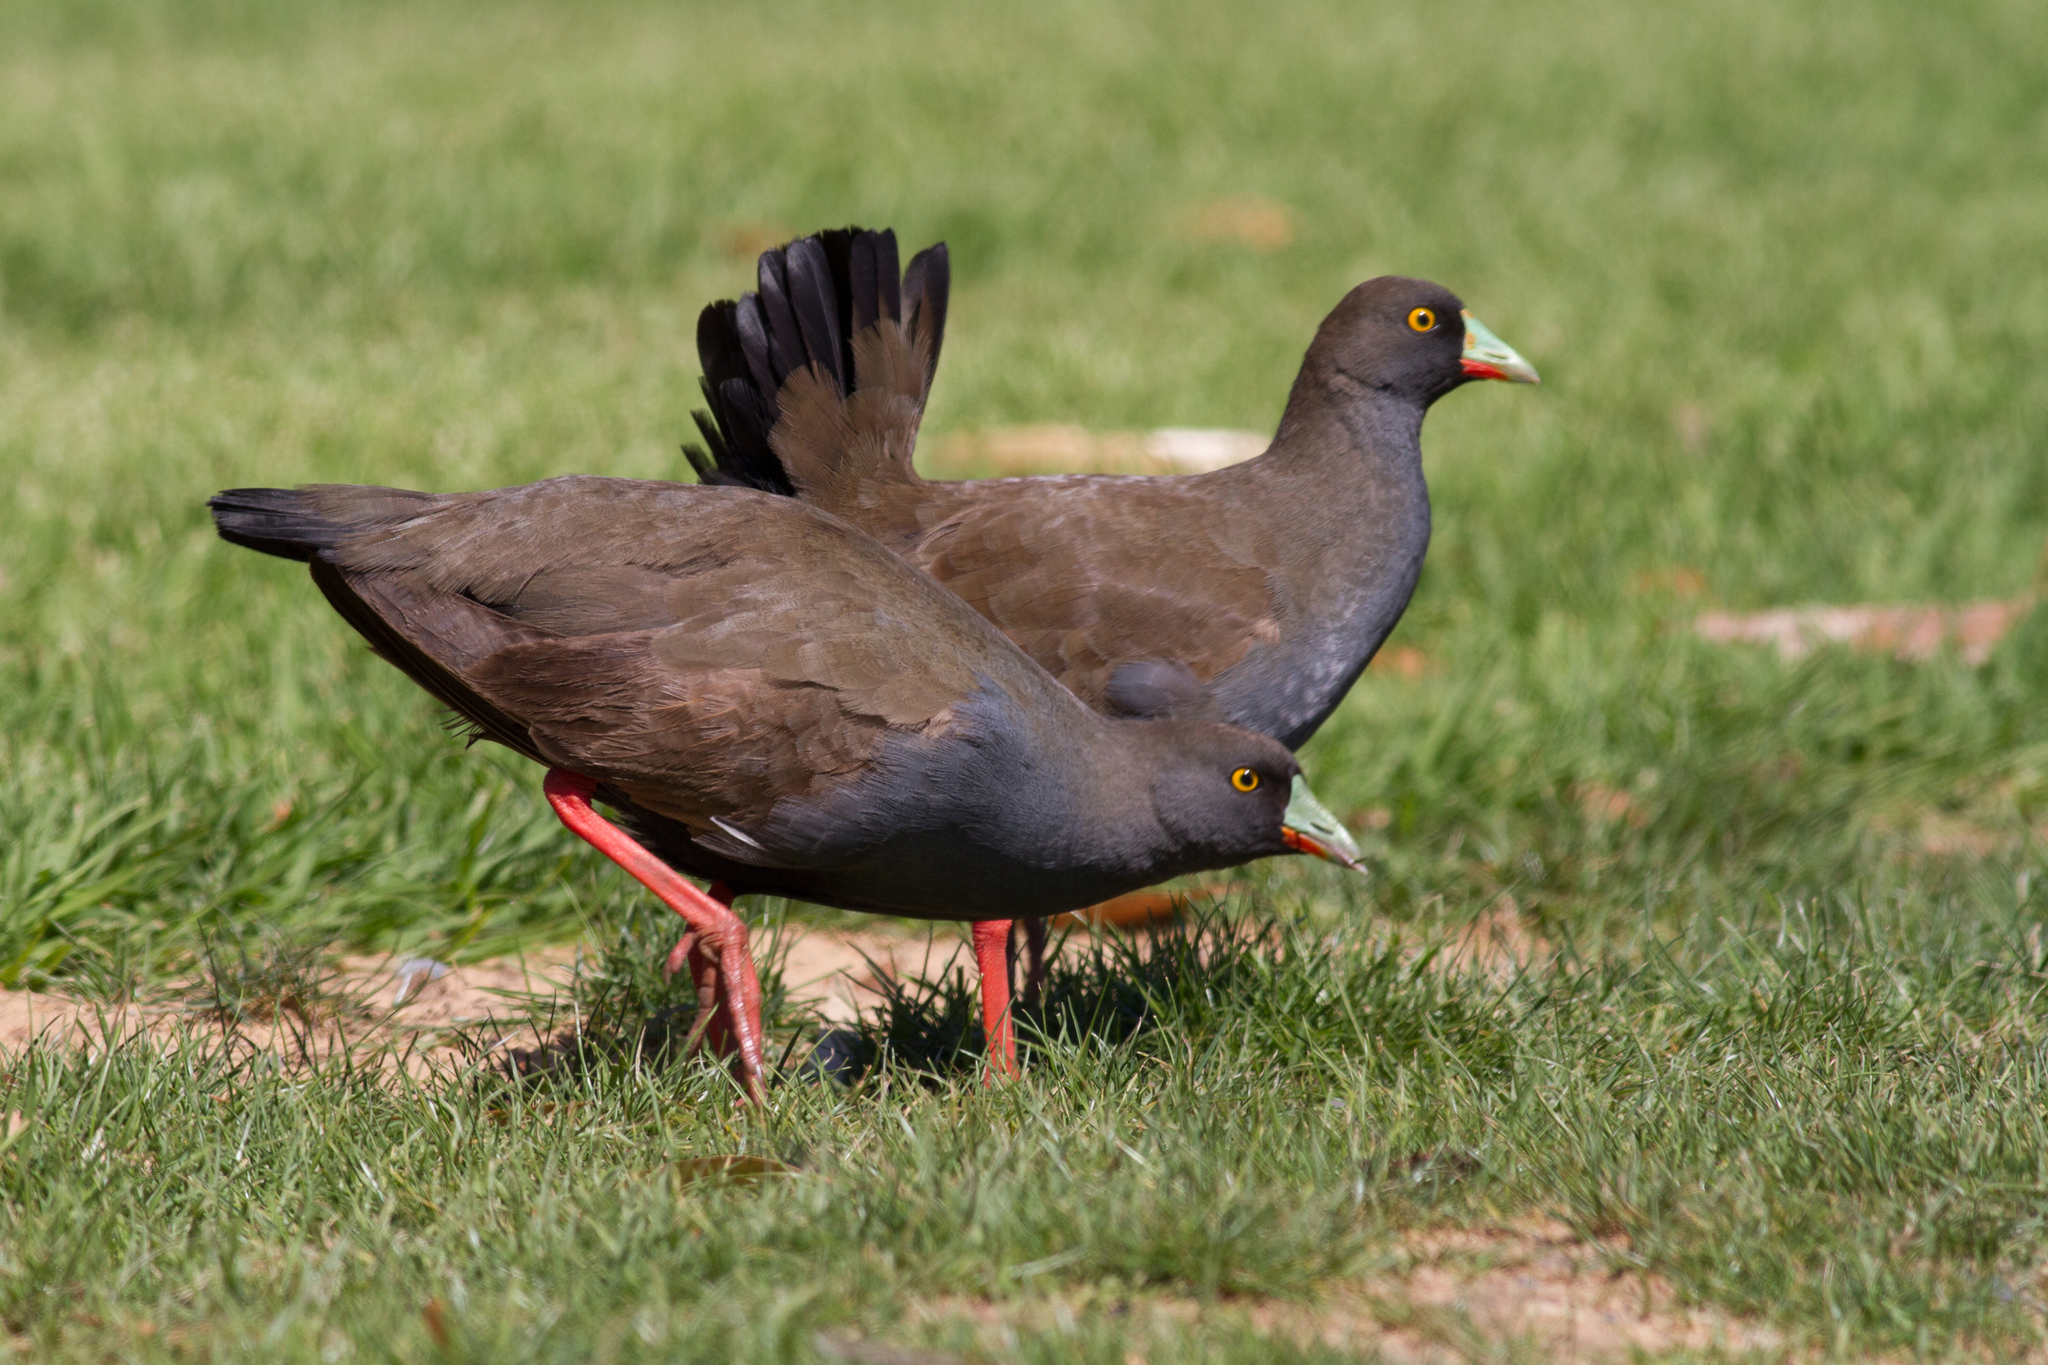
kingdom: Animalia
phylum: Chordata
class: Aves
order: Gruiformes
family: Rallidae
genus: Gallinula
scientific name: Gallinula ventralis
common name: Black-tailed nativehen
